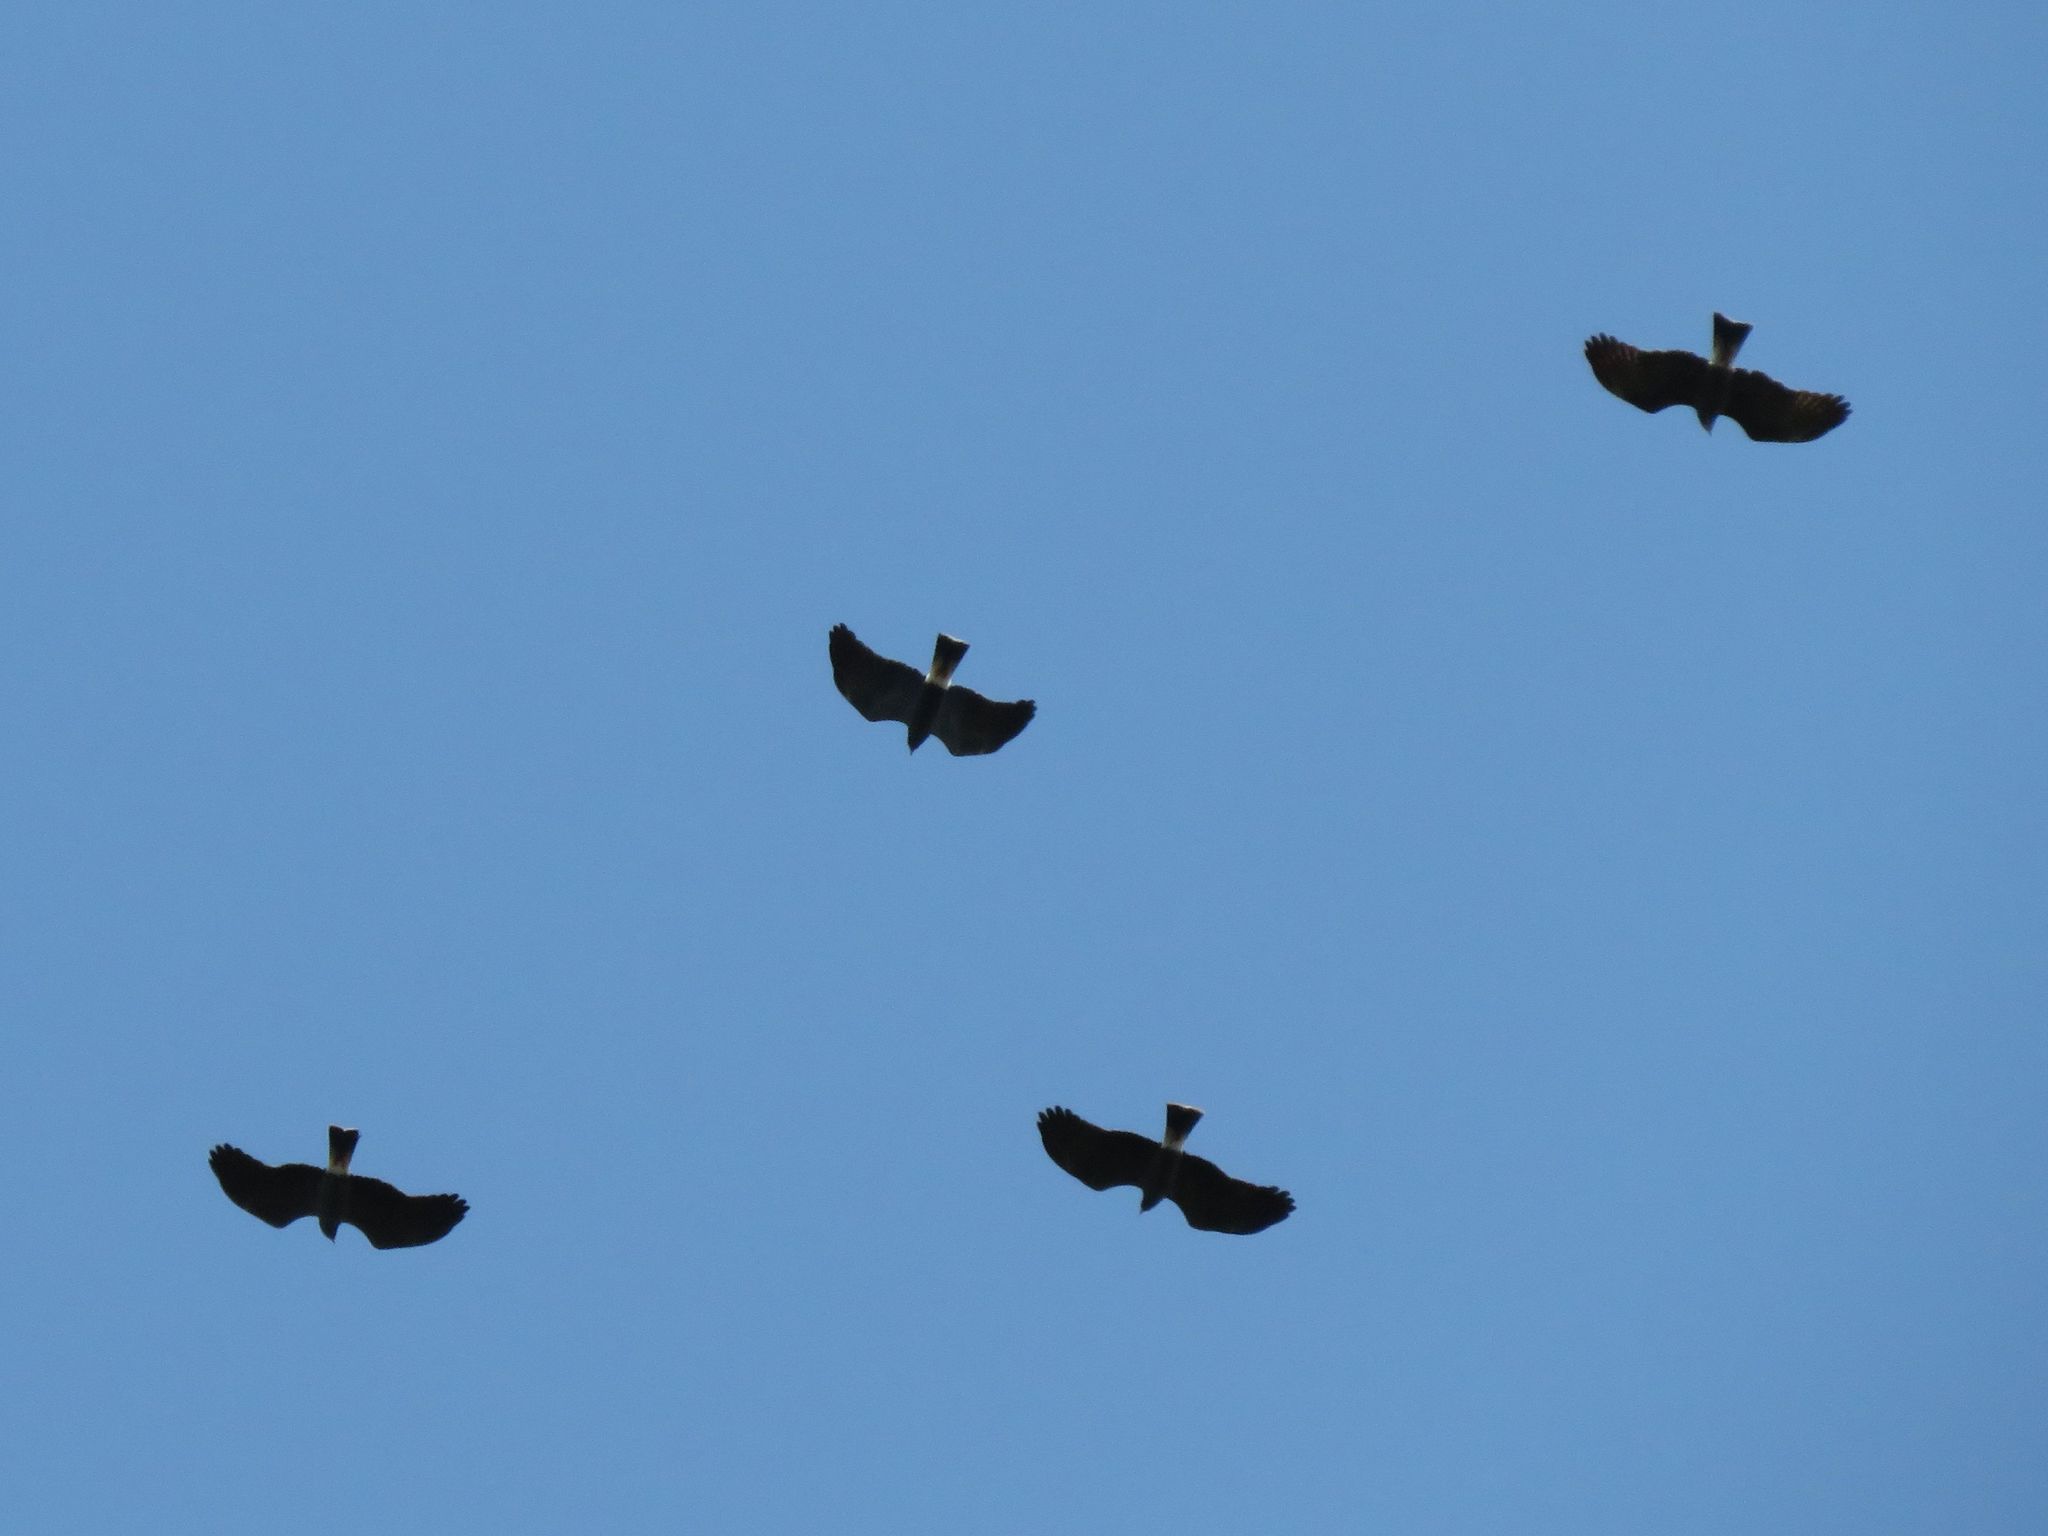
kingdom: Animalia
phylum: Chordata
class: Aves
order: Accipitriformes
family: Accipitridae
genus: Rostrhamus
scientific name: Rostrhamus sociabilis
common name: Snail kite
